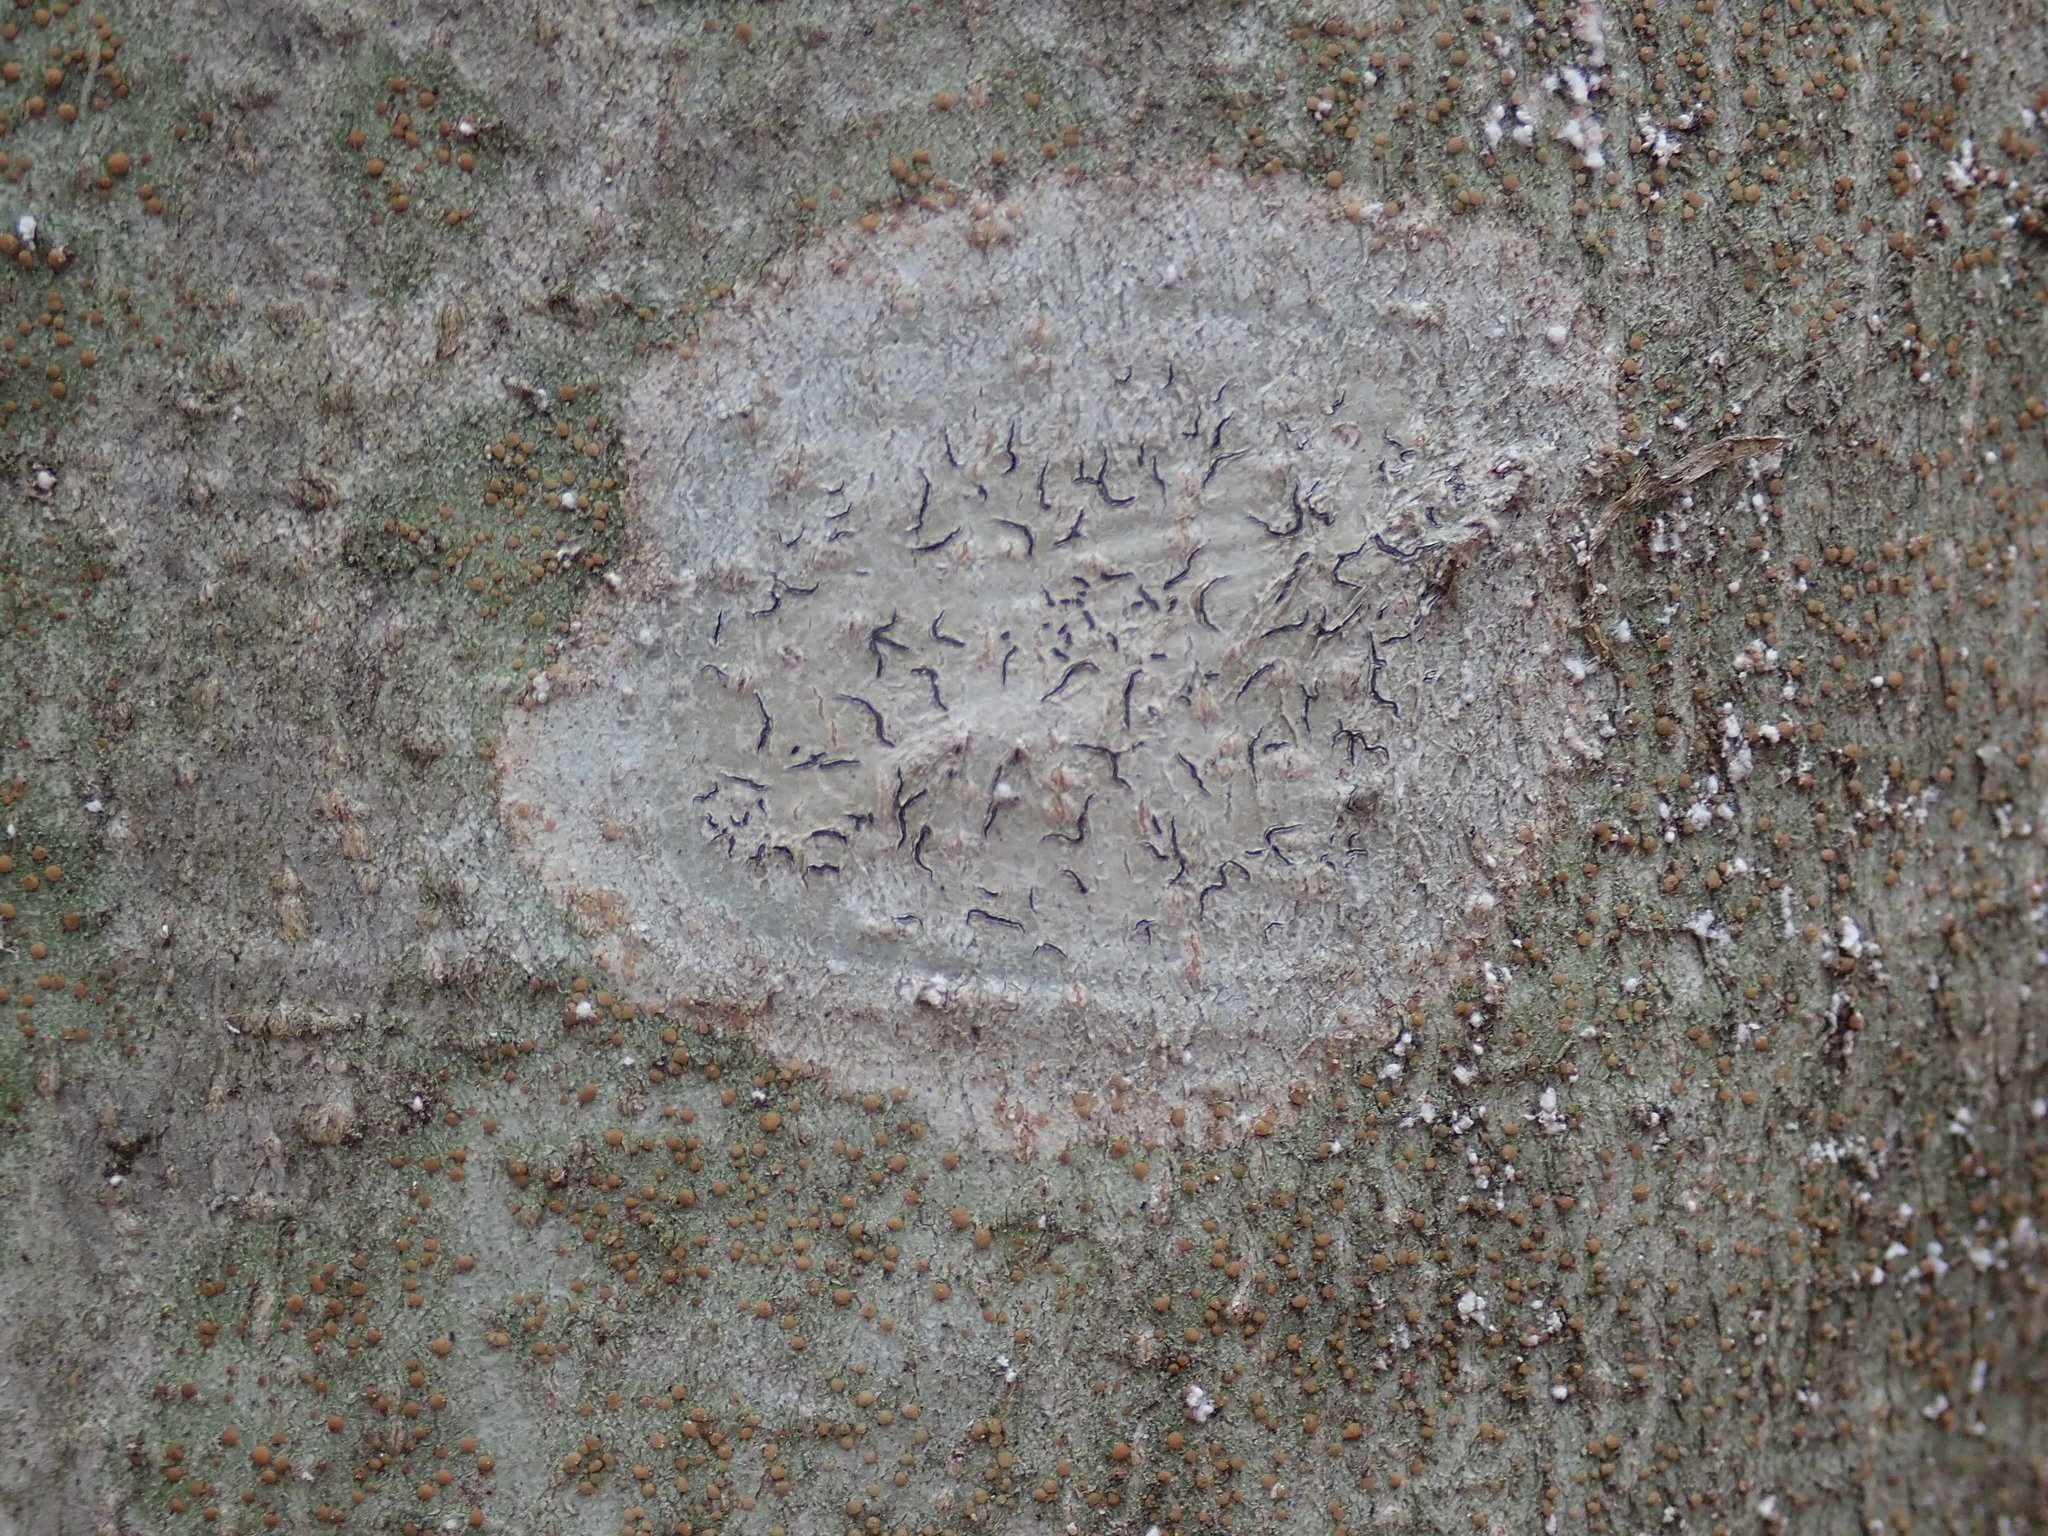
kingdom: Fungi
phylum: Ascomycota
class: Lecanoromycetes
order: Ostropales
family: Graphidaceae
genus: Graphis
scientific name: Graphis scripta
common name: Script lichen
